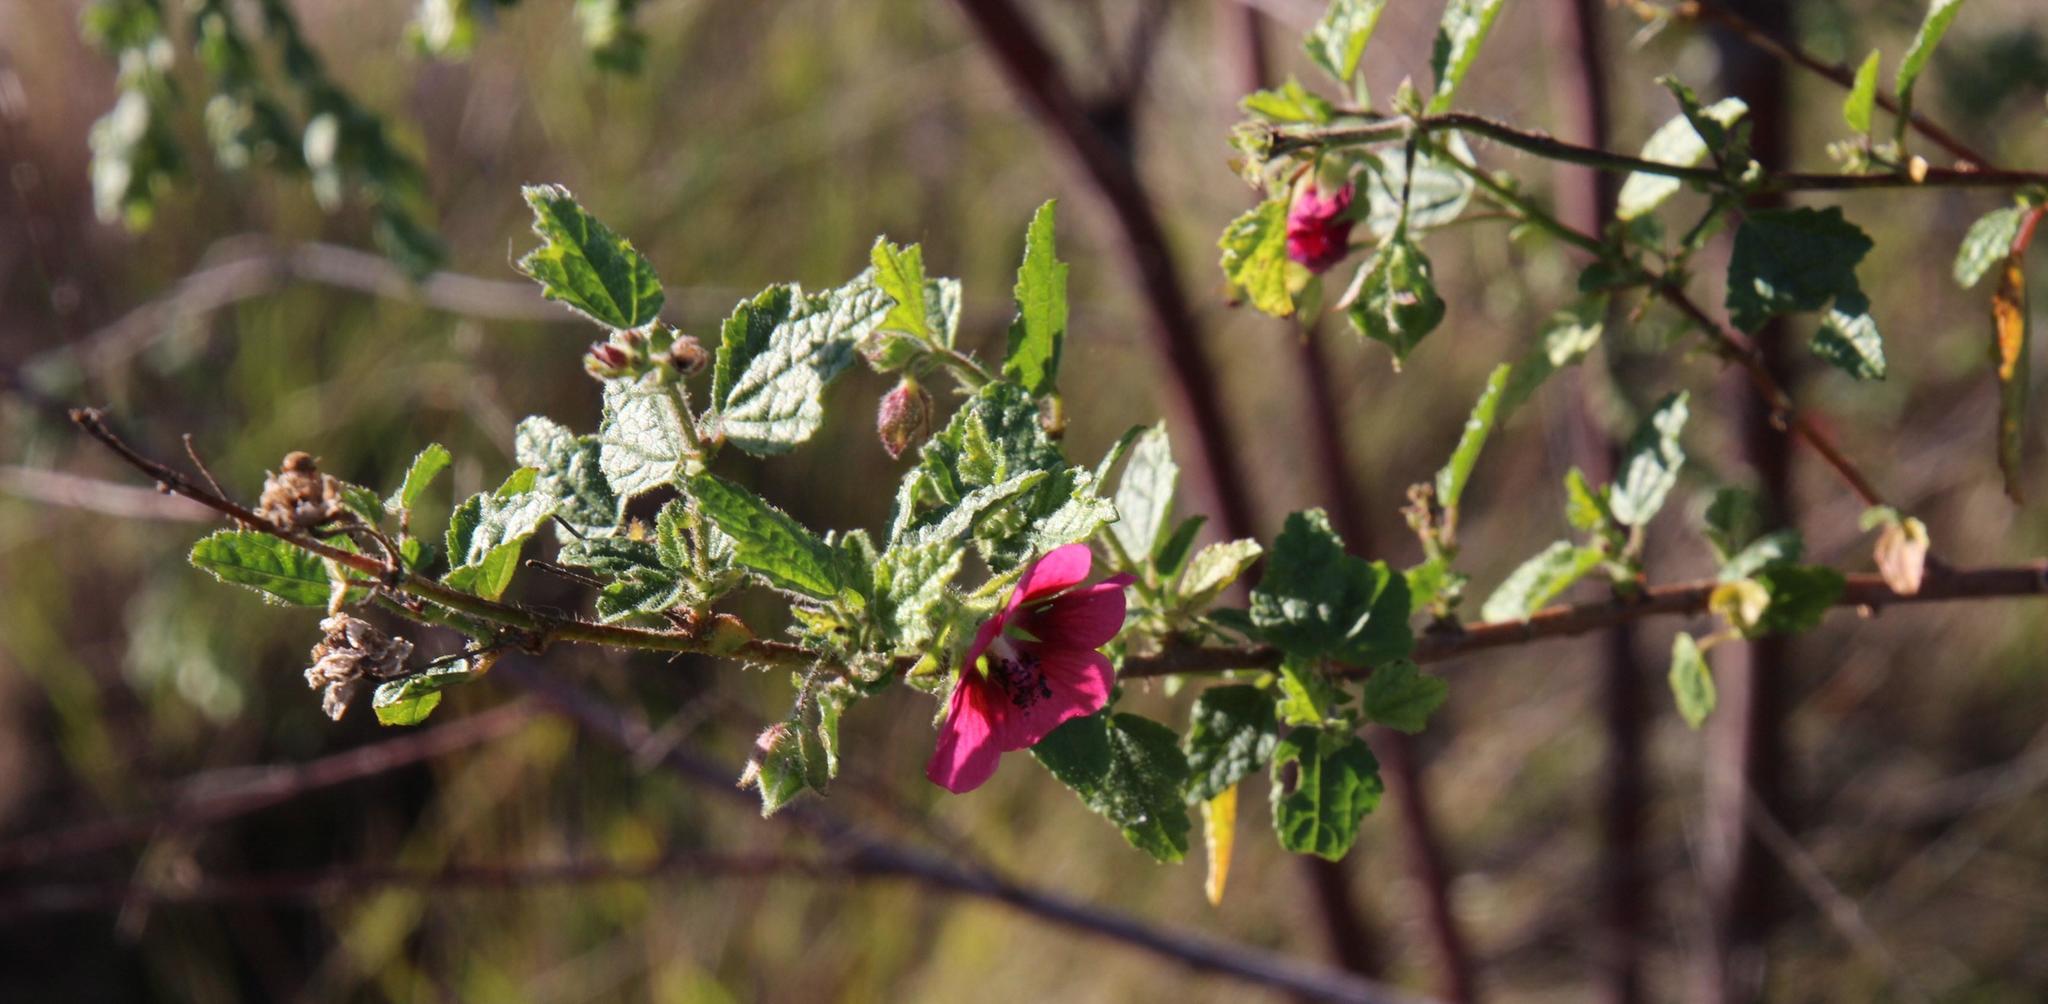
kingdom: Plantae
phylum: Tracheophyta
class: Magnoliopsida
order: Malvales
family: Malvaceae
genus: Anisodontea
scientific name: Anisodontea scabrosa
